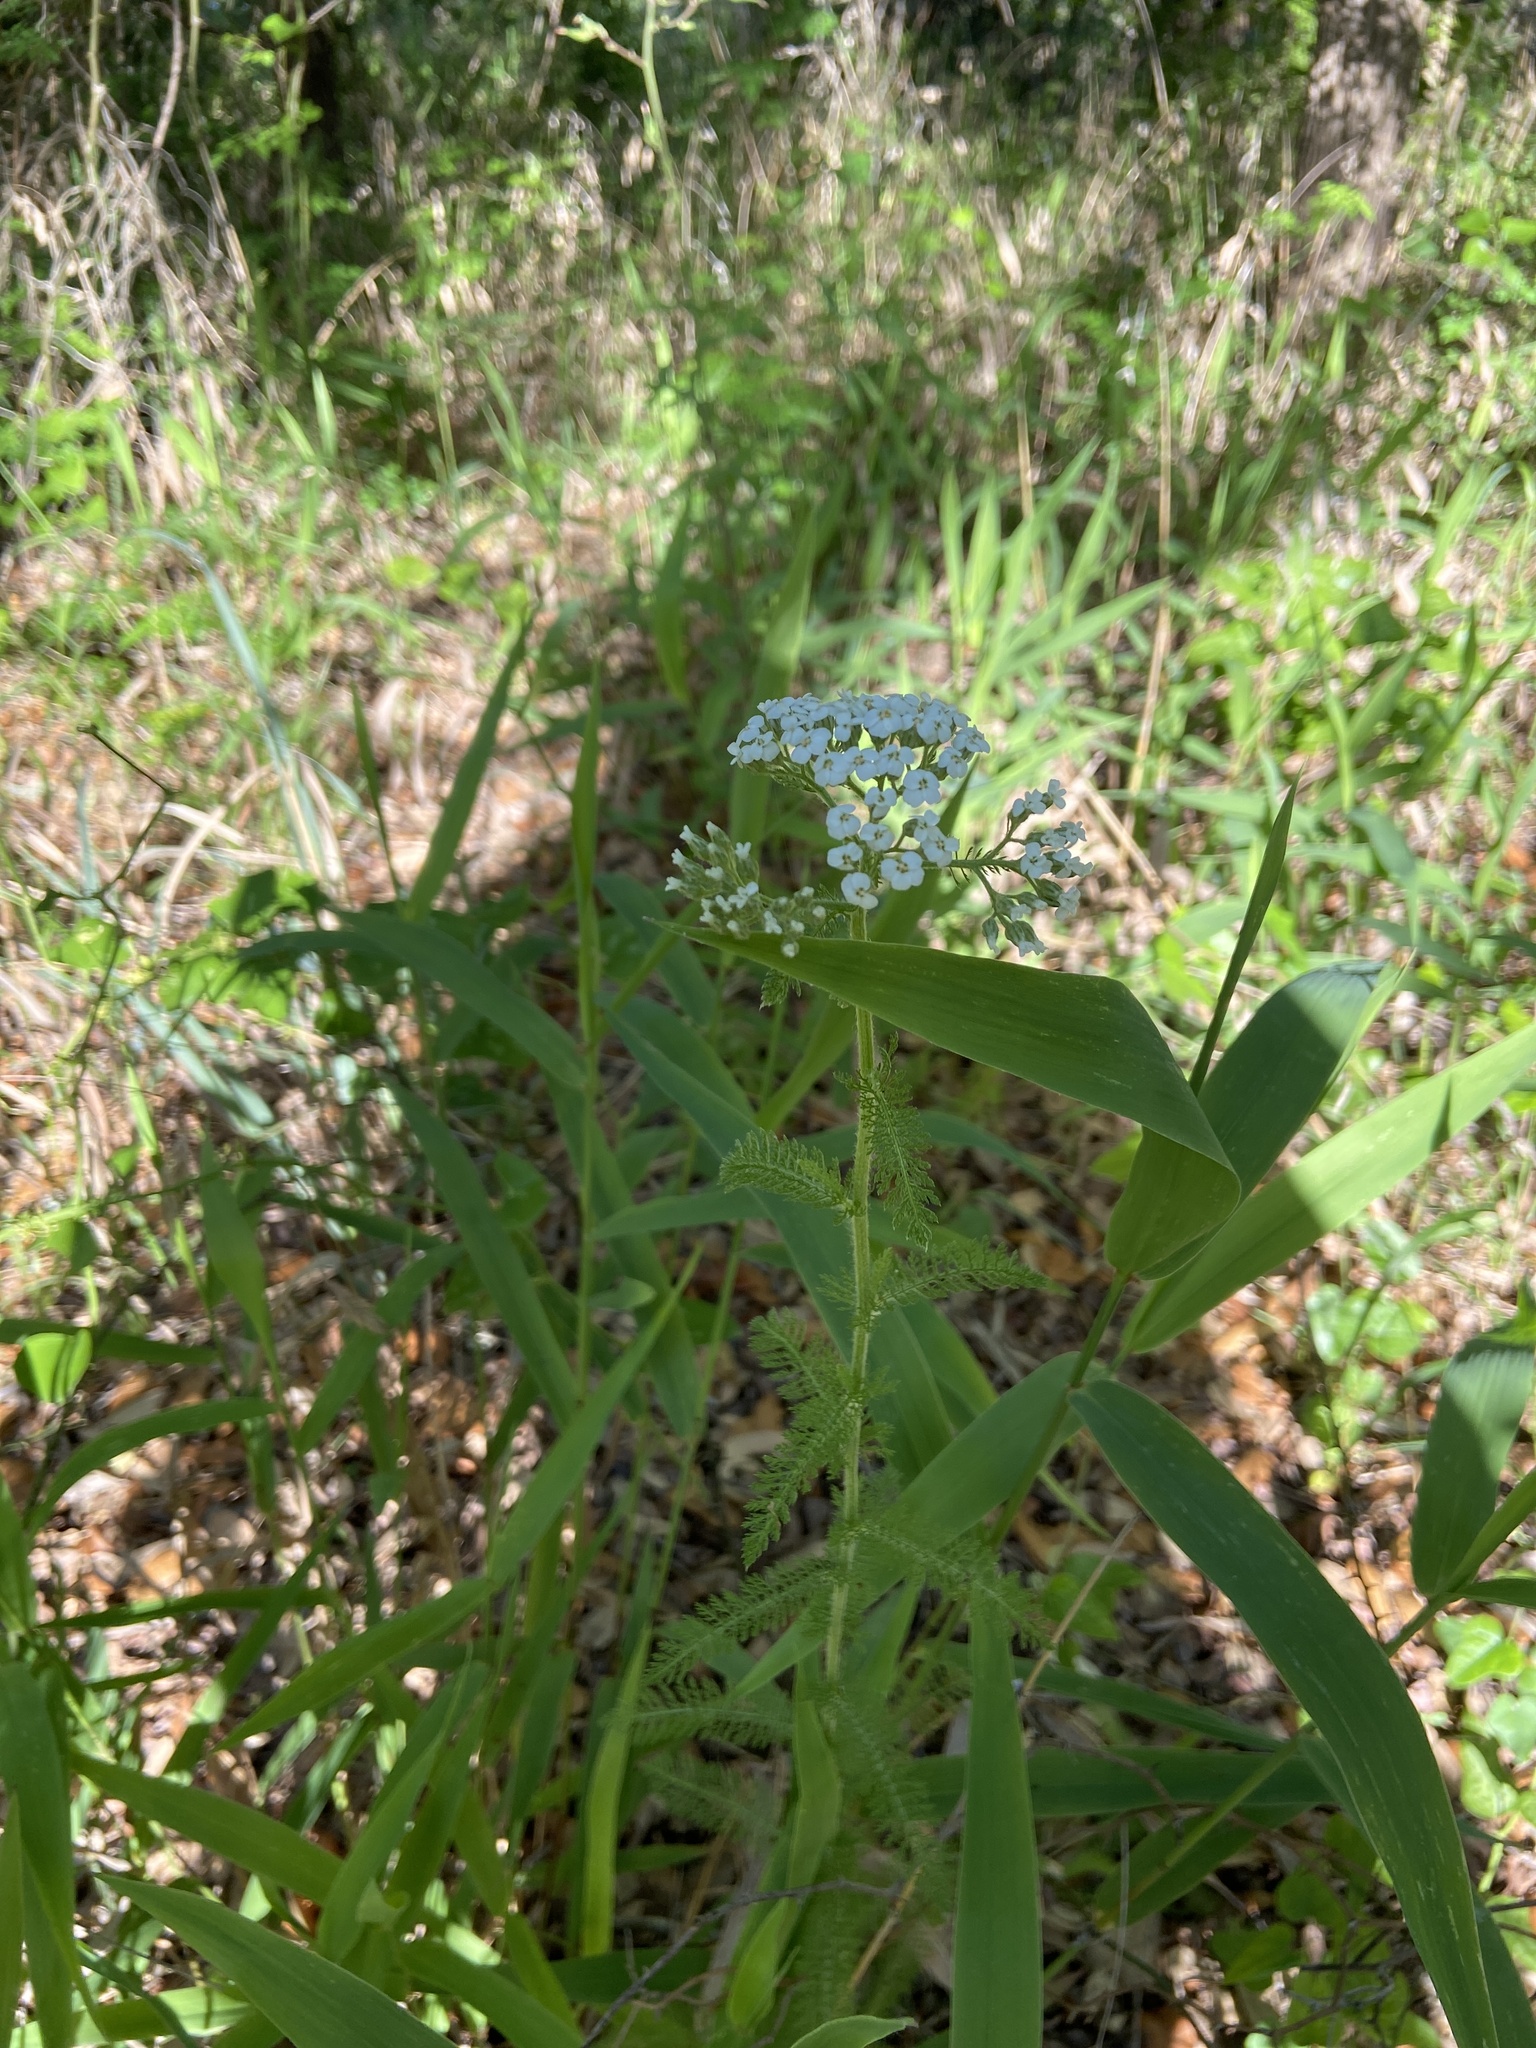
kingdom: Plantae
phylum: Tracheophyta
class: Magnoliopsida
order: Asterales
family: Asteraceae
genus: Achillea
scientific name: Achillea millefolium
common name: Yarrow
